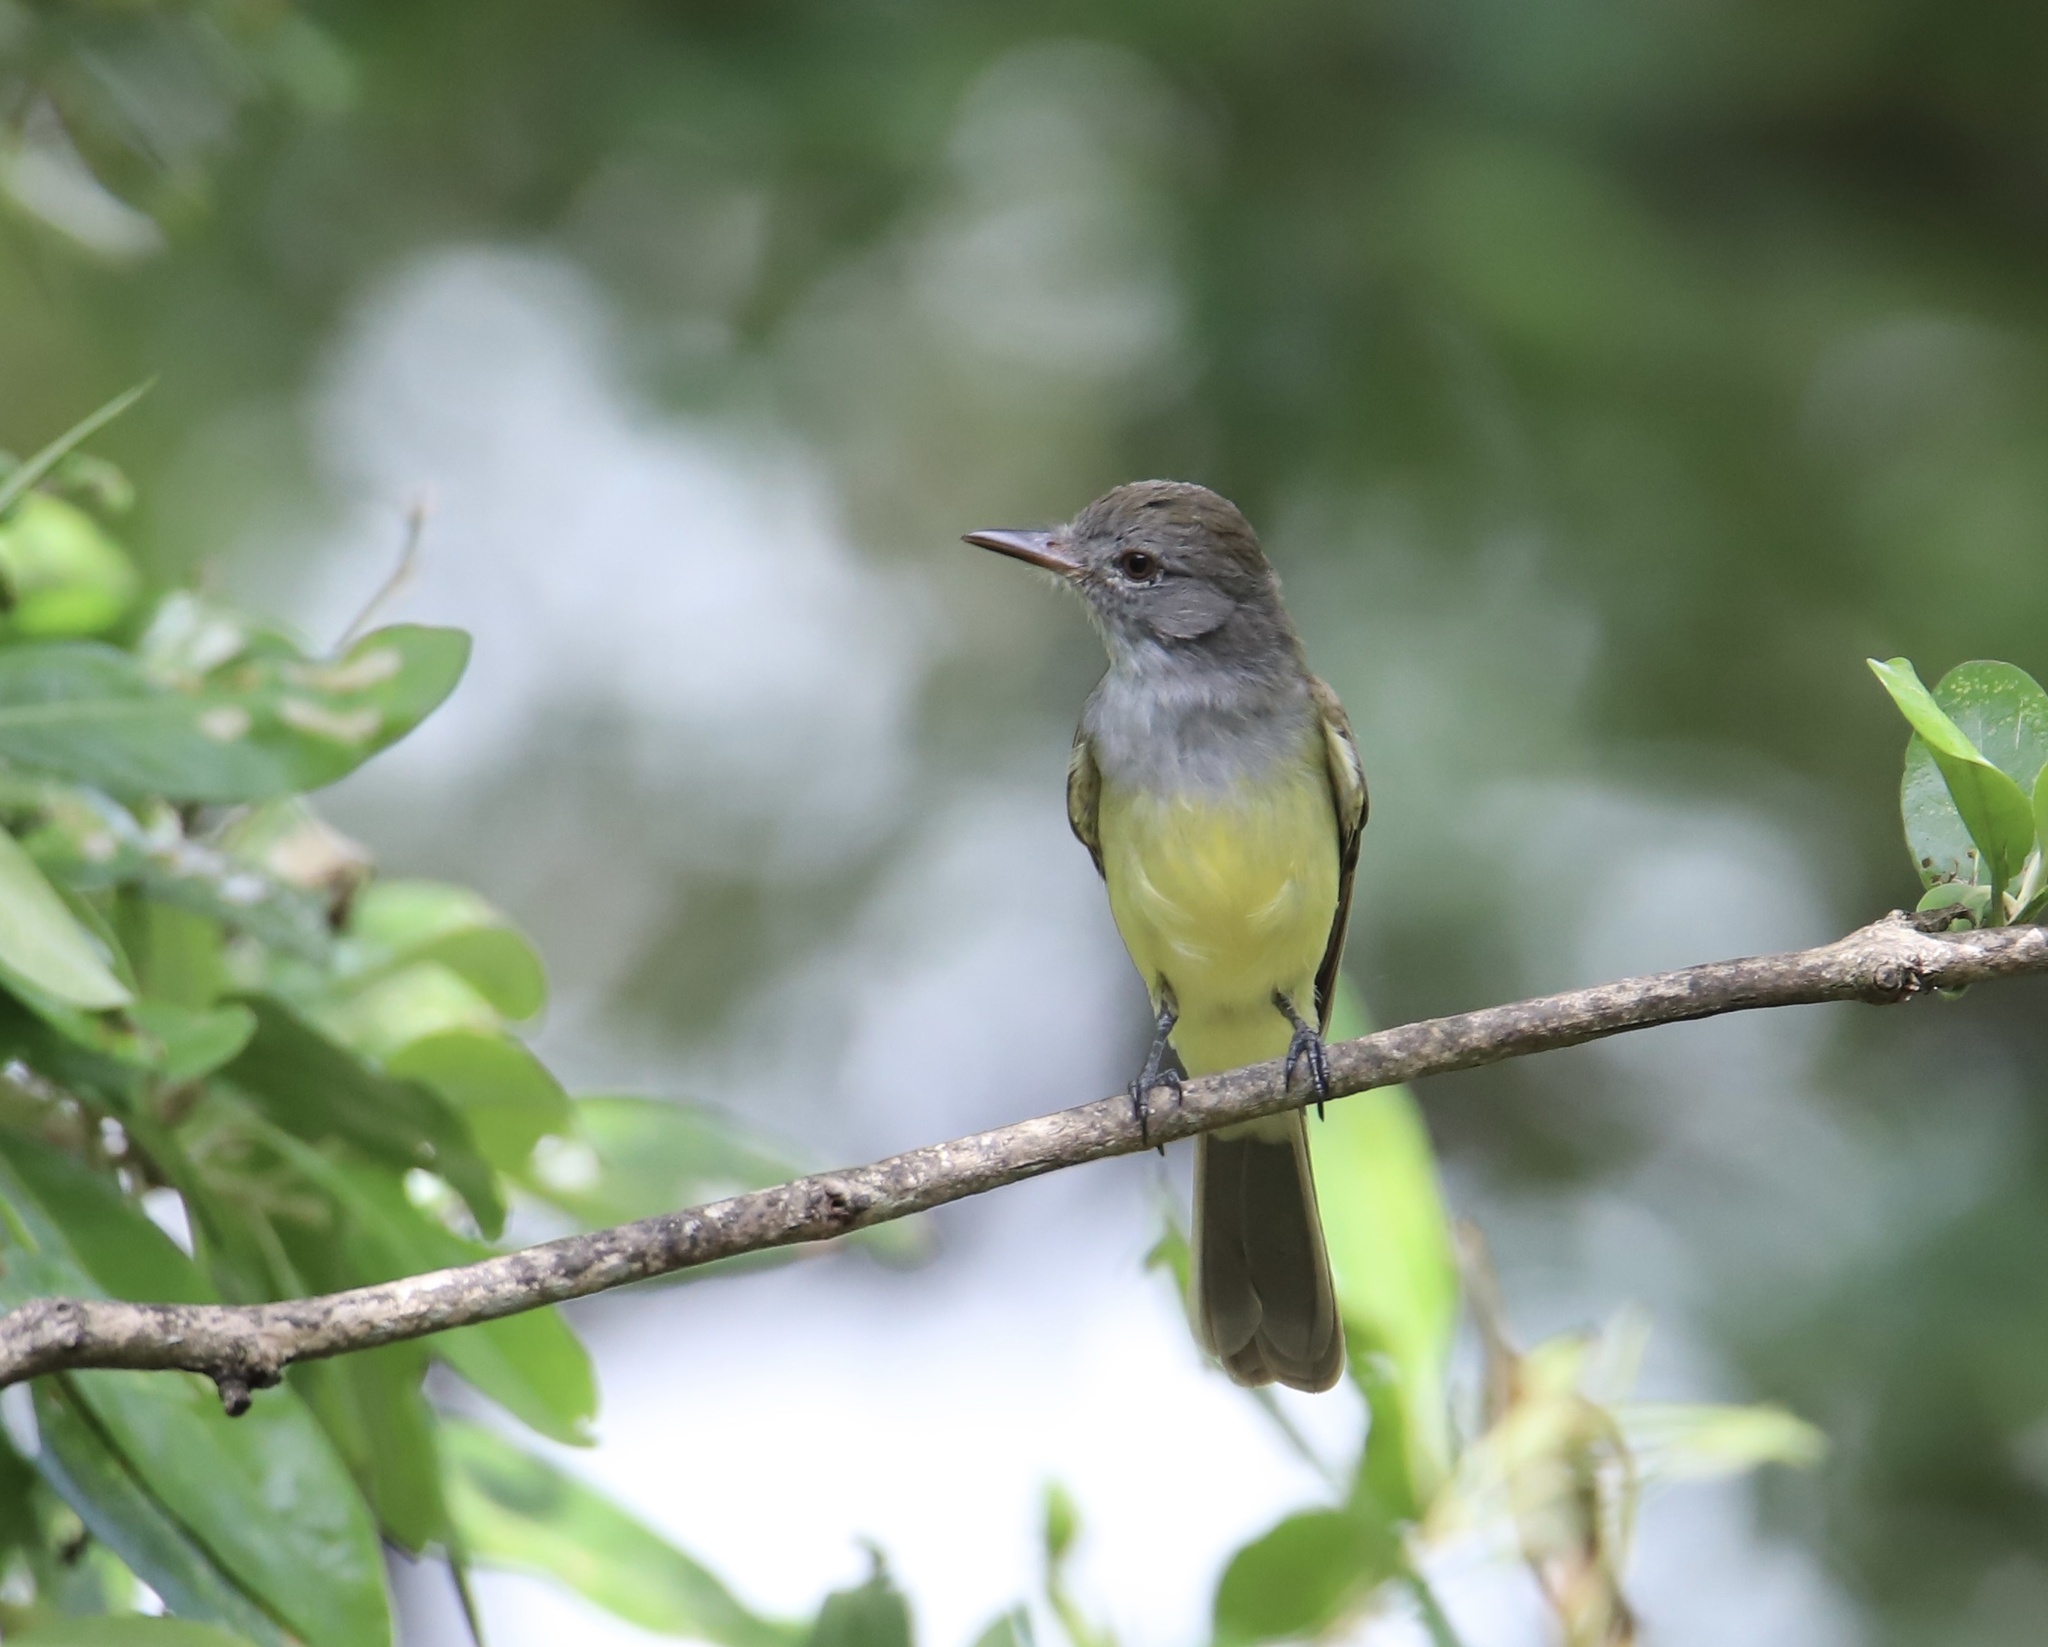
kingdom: Animalia
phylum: Chordata
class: Aves
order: Passeriformes
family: Tyrannidae
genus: Myiarchus
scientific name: Myiarchus panamensis
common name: Panama flycatcher
